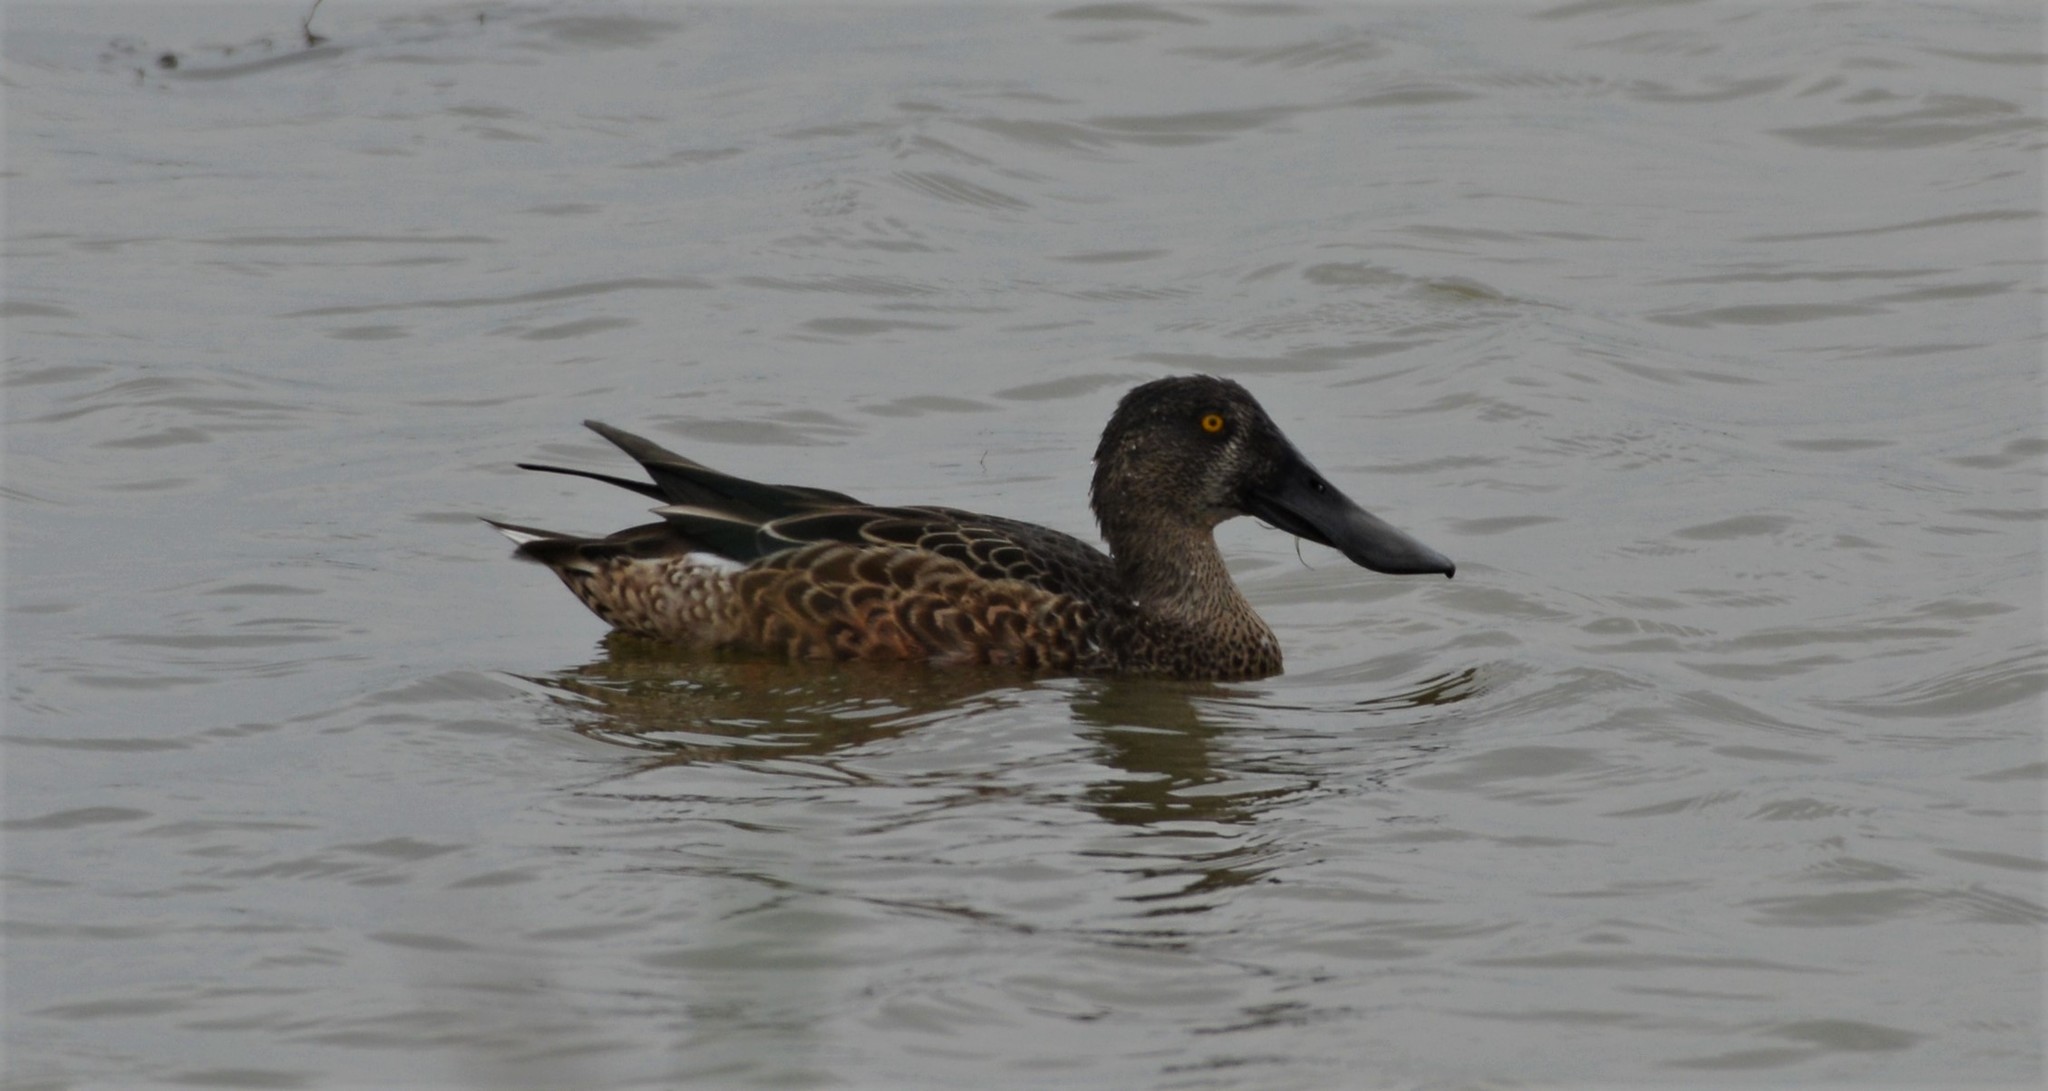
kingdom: Animalia
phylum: Chordata
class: Aves
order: Anseriformes
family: Anatidae
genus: Spatula
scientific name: Spatula clypeata
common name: Northern shoveler
